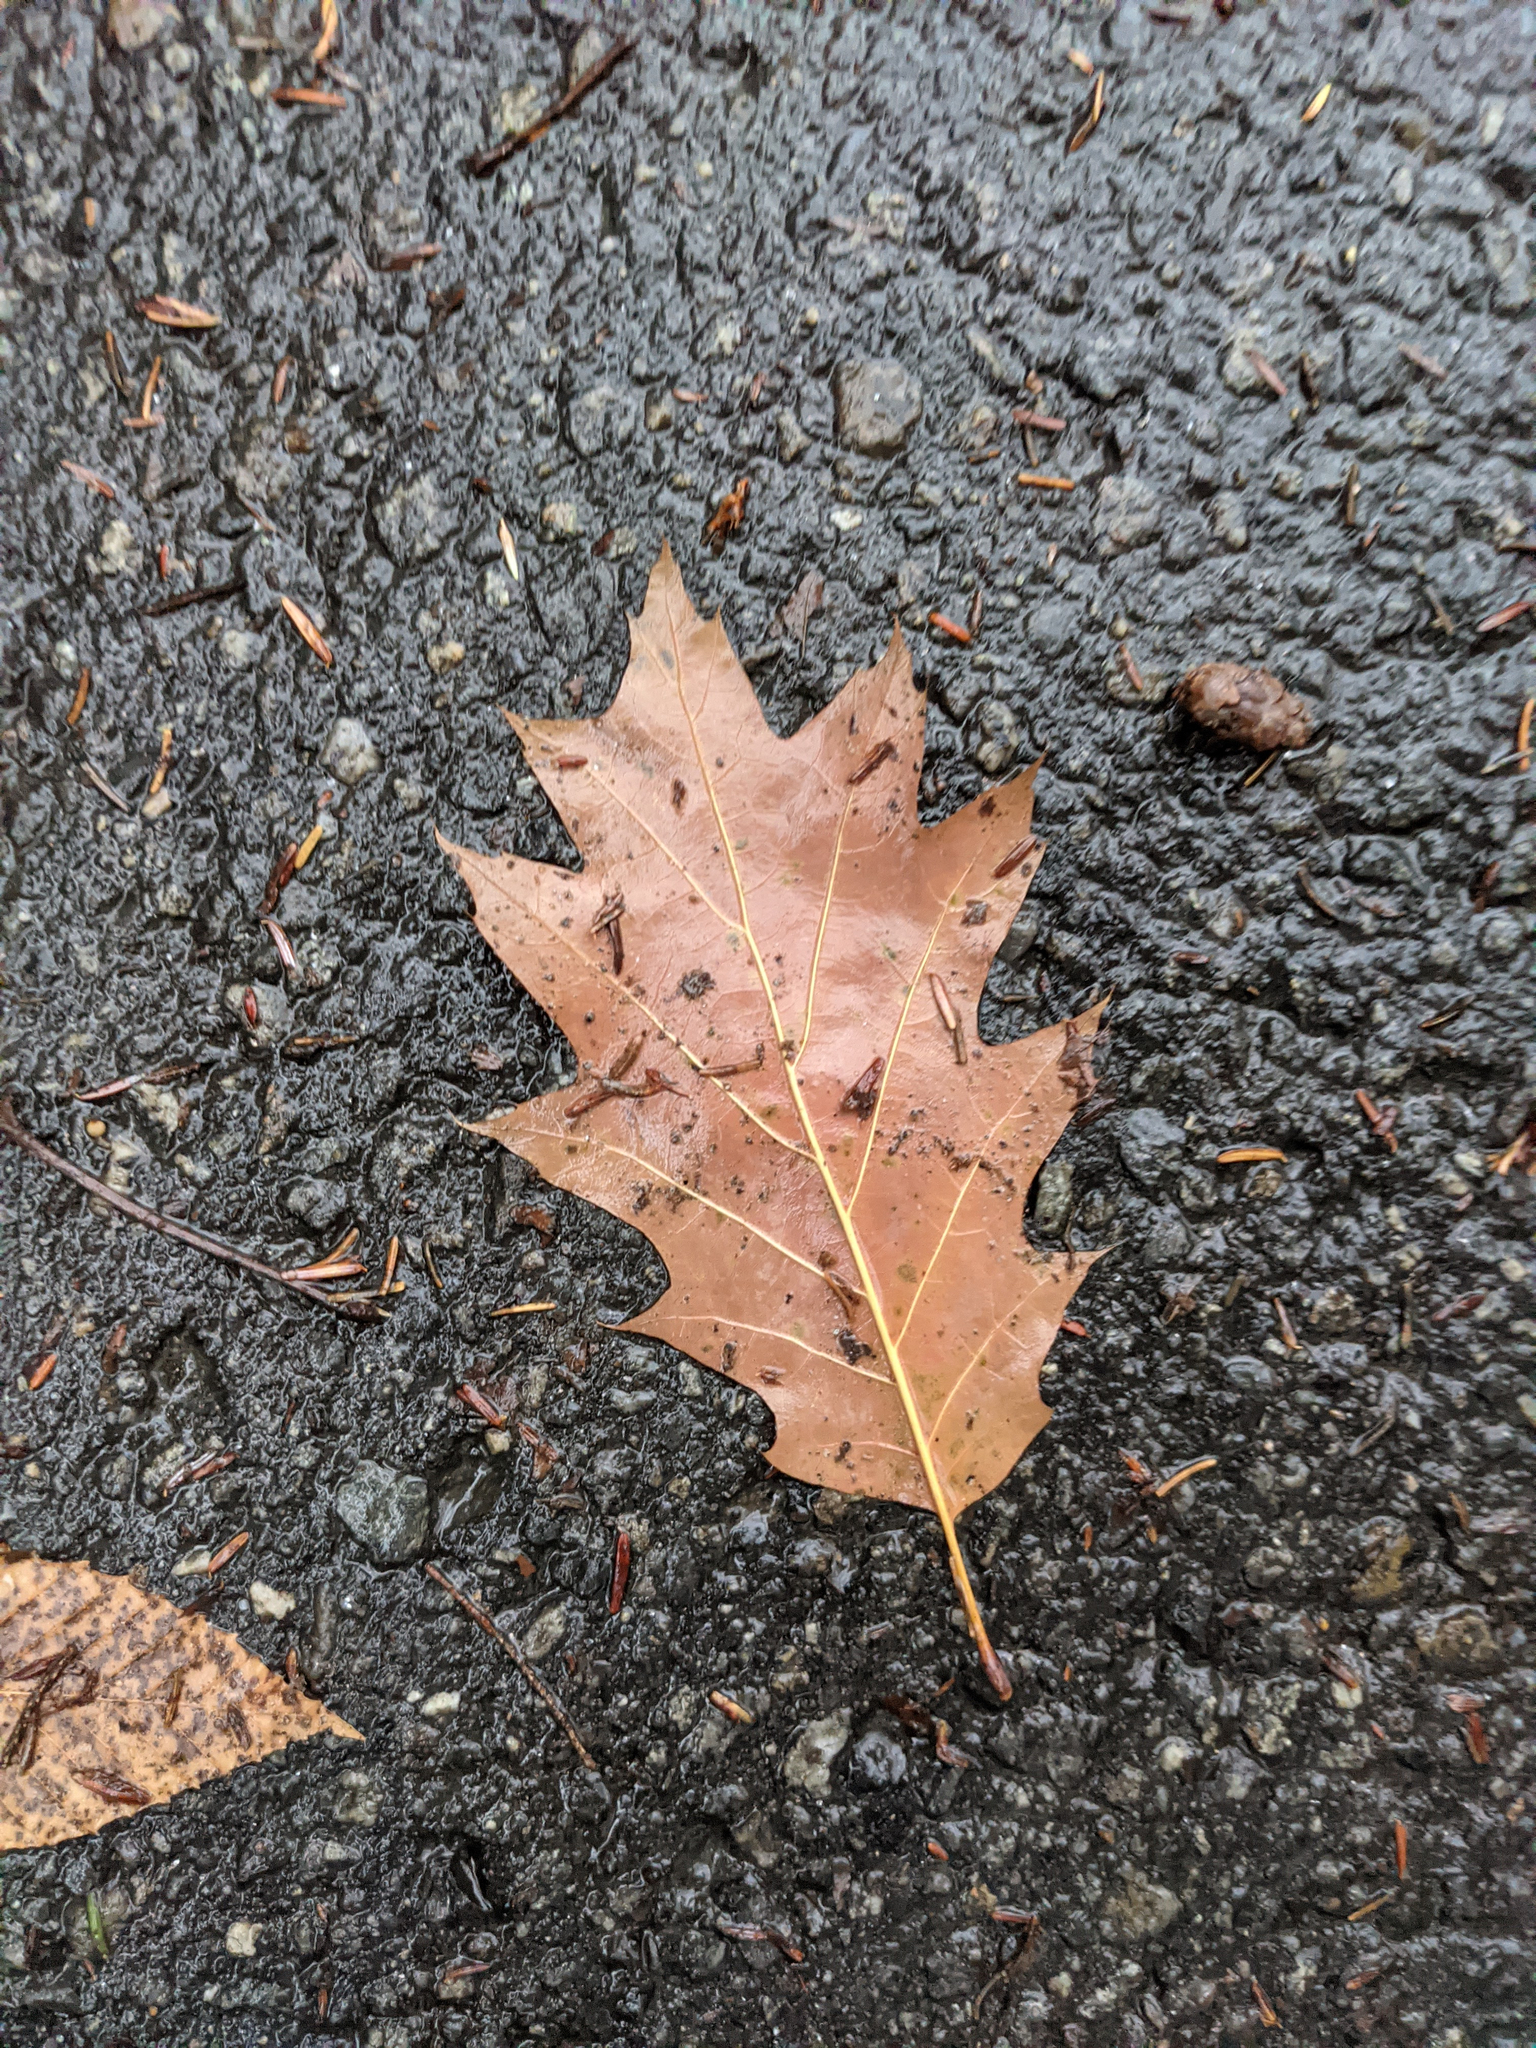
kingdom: Plantae
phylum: Tracheophyta
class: Magnoliopsida
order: Fagales
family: Fagaceae
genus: Quercus
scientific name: Quercus rubra
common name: Red oak
